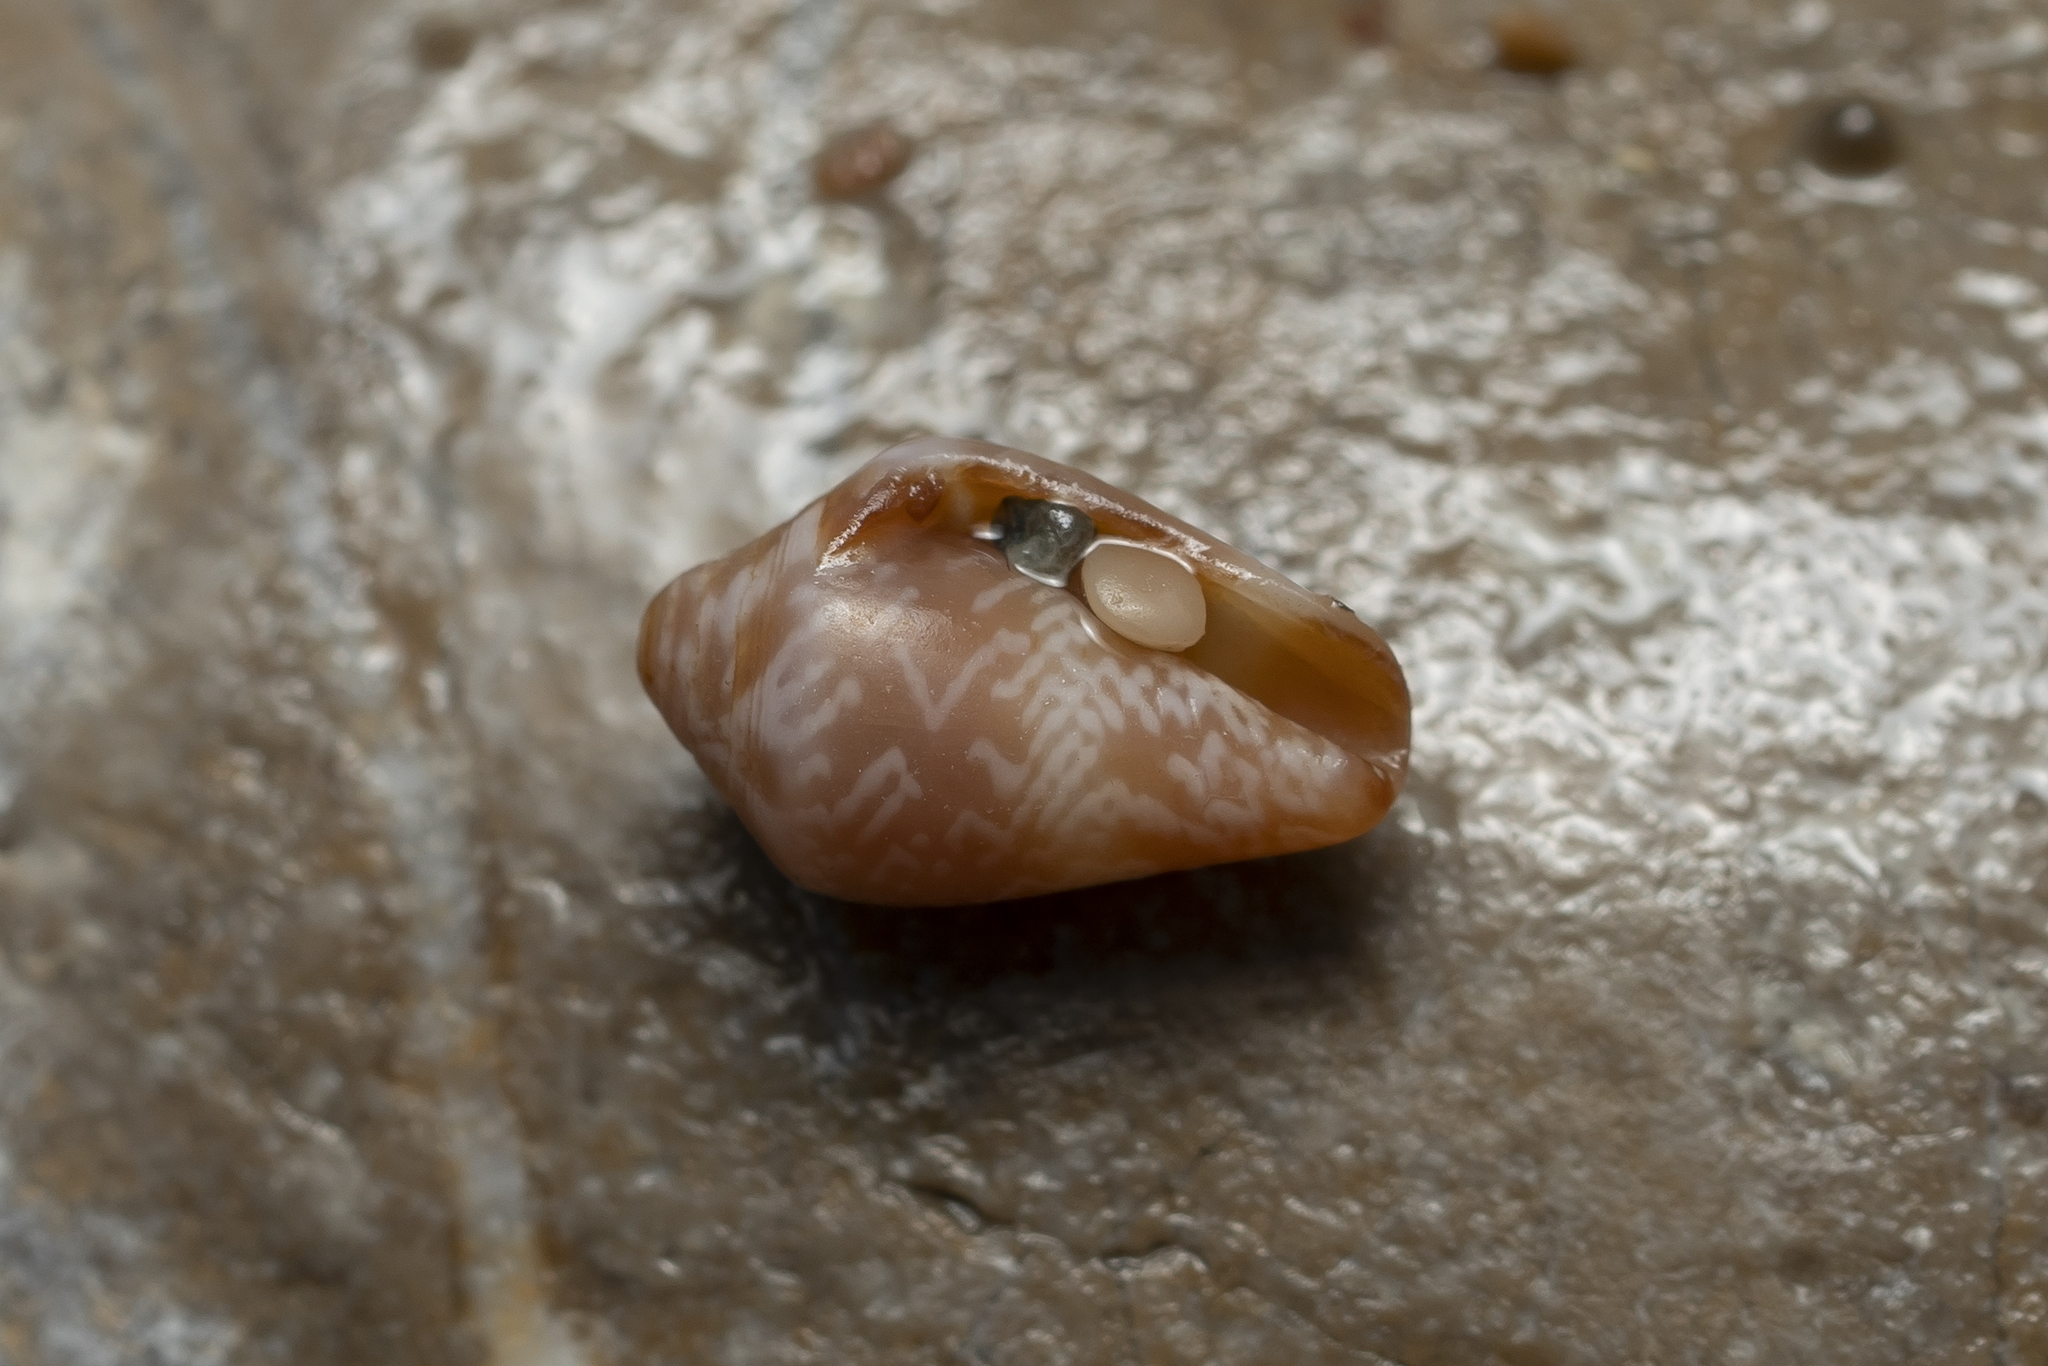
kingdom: Animalia
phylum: Mollusca
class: Gastropoda
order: Neogastropoda
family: Conidae
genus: Conus
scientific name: Conus ventricosus
